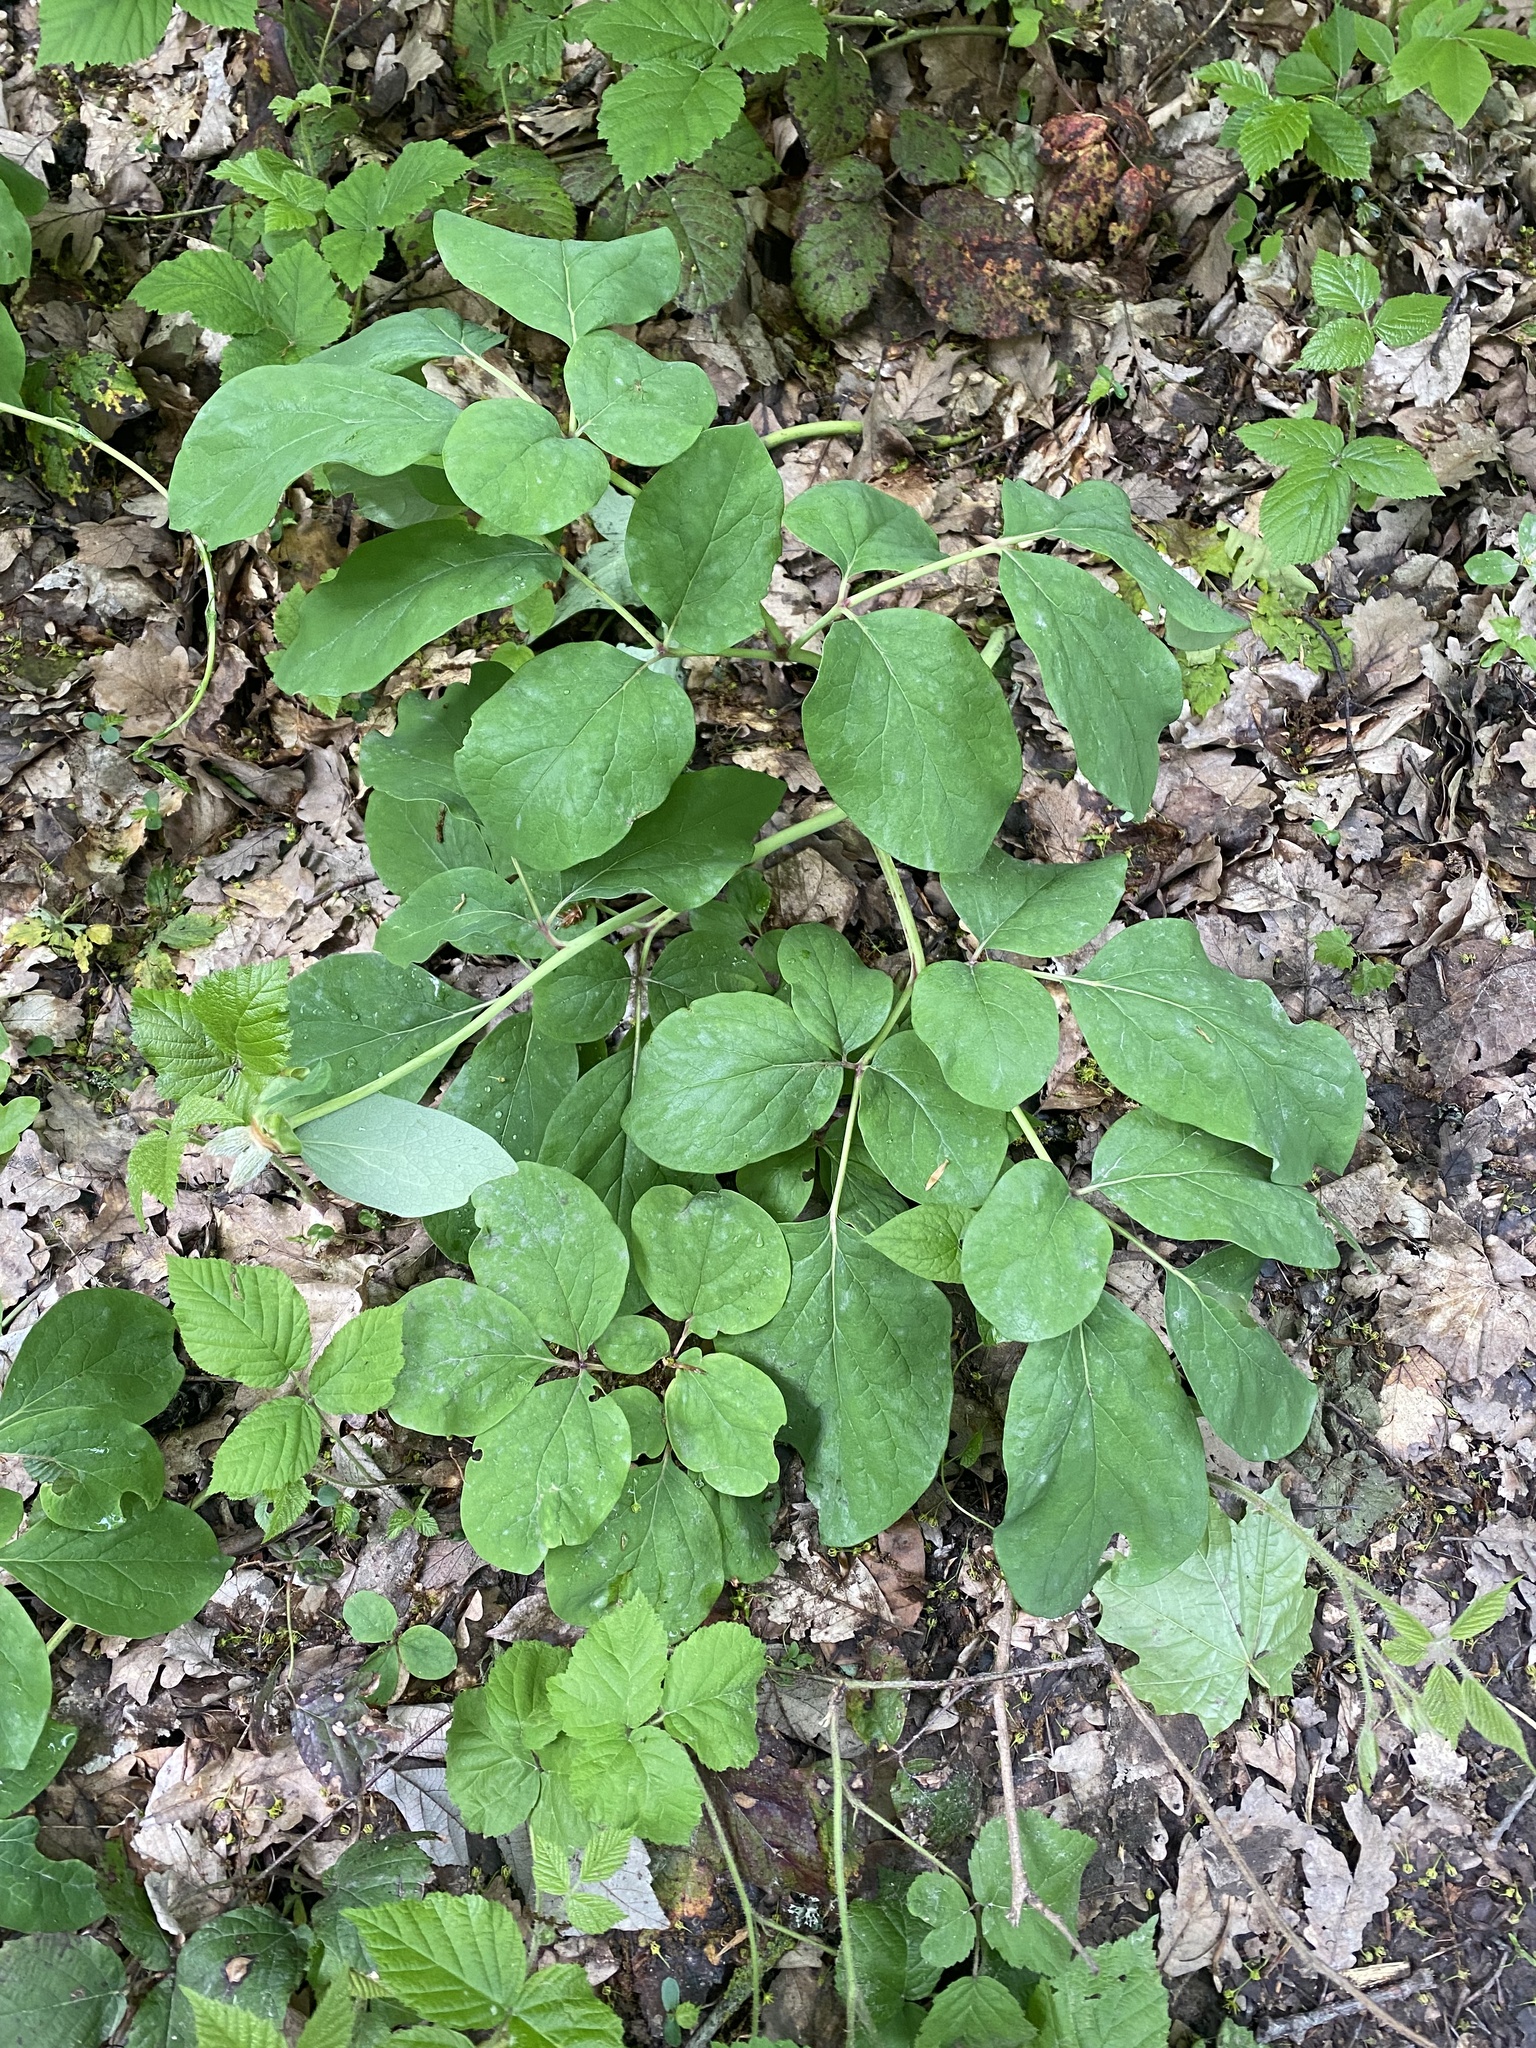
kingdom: Plantae
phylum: Tracheophyta
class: Magnoliopsida
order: Saxifragales
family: Paeoniaceae
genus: Paeonia
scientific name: Paeonia caucasica
